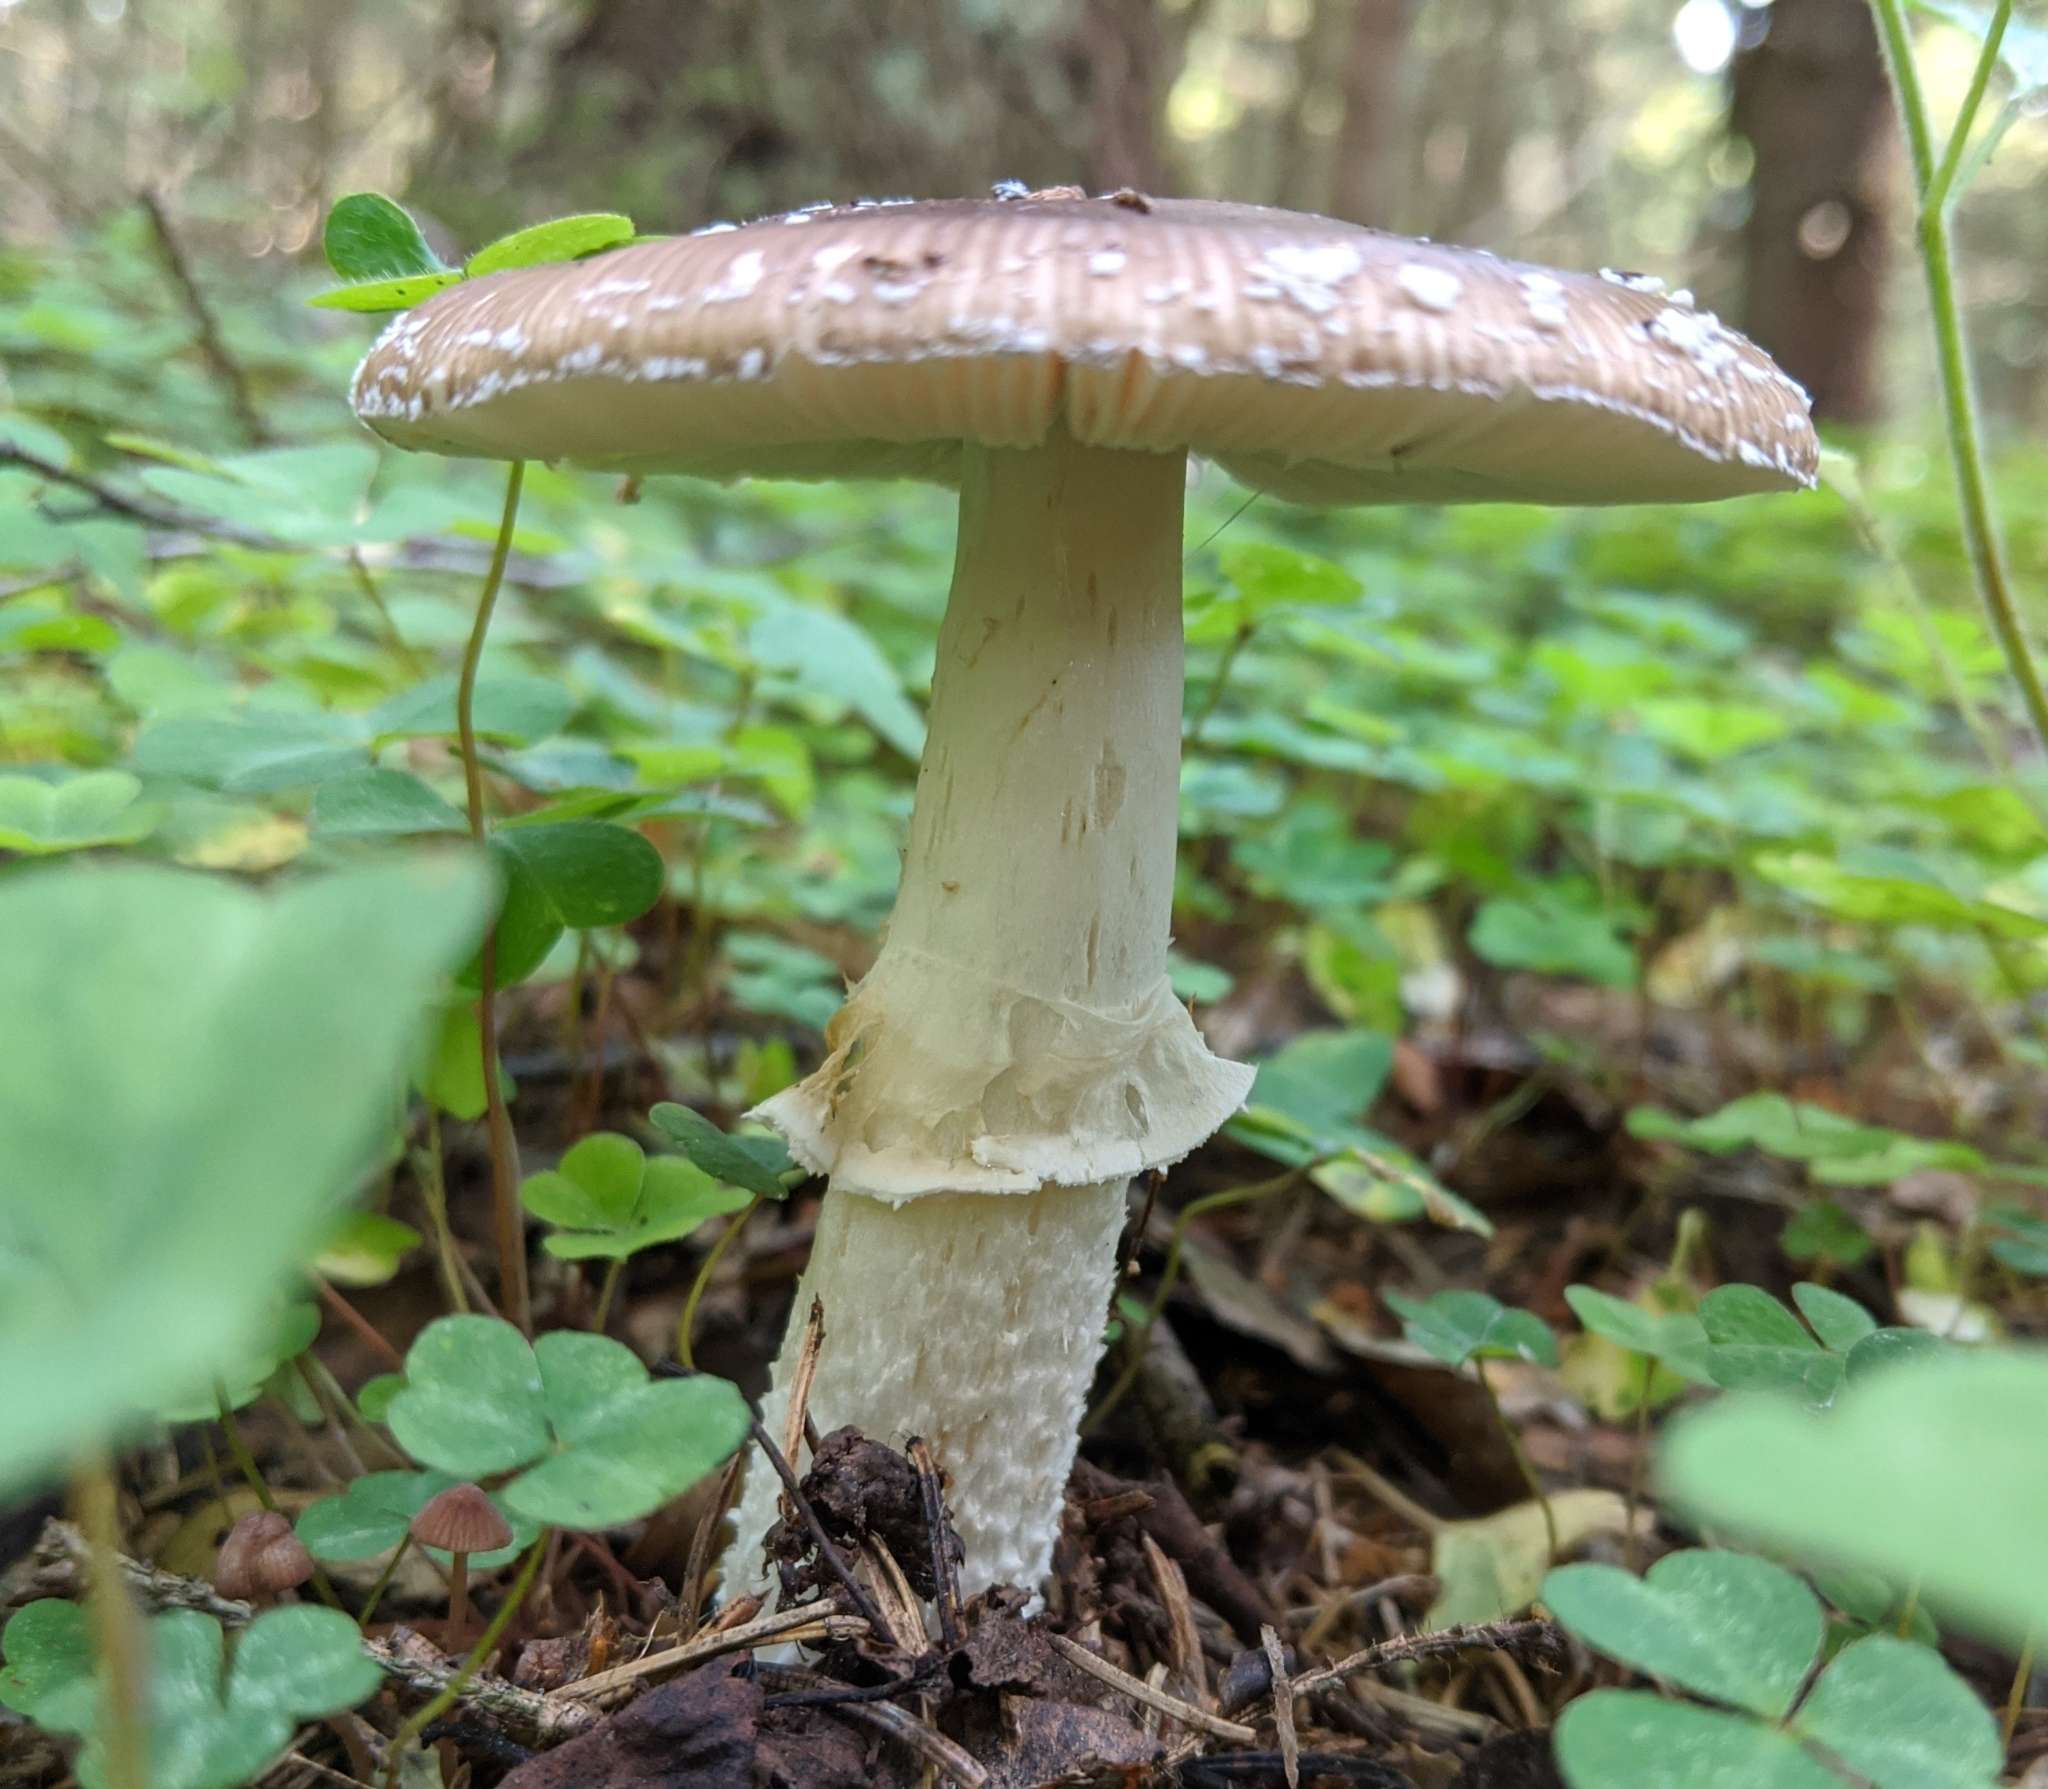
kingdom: Fungi
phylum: Basidiomycota
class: Agaricomycetes
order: Agaricales
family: Amanitaceae
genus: Amanita
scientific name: Amanita pantherina
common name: Panthercap
